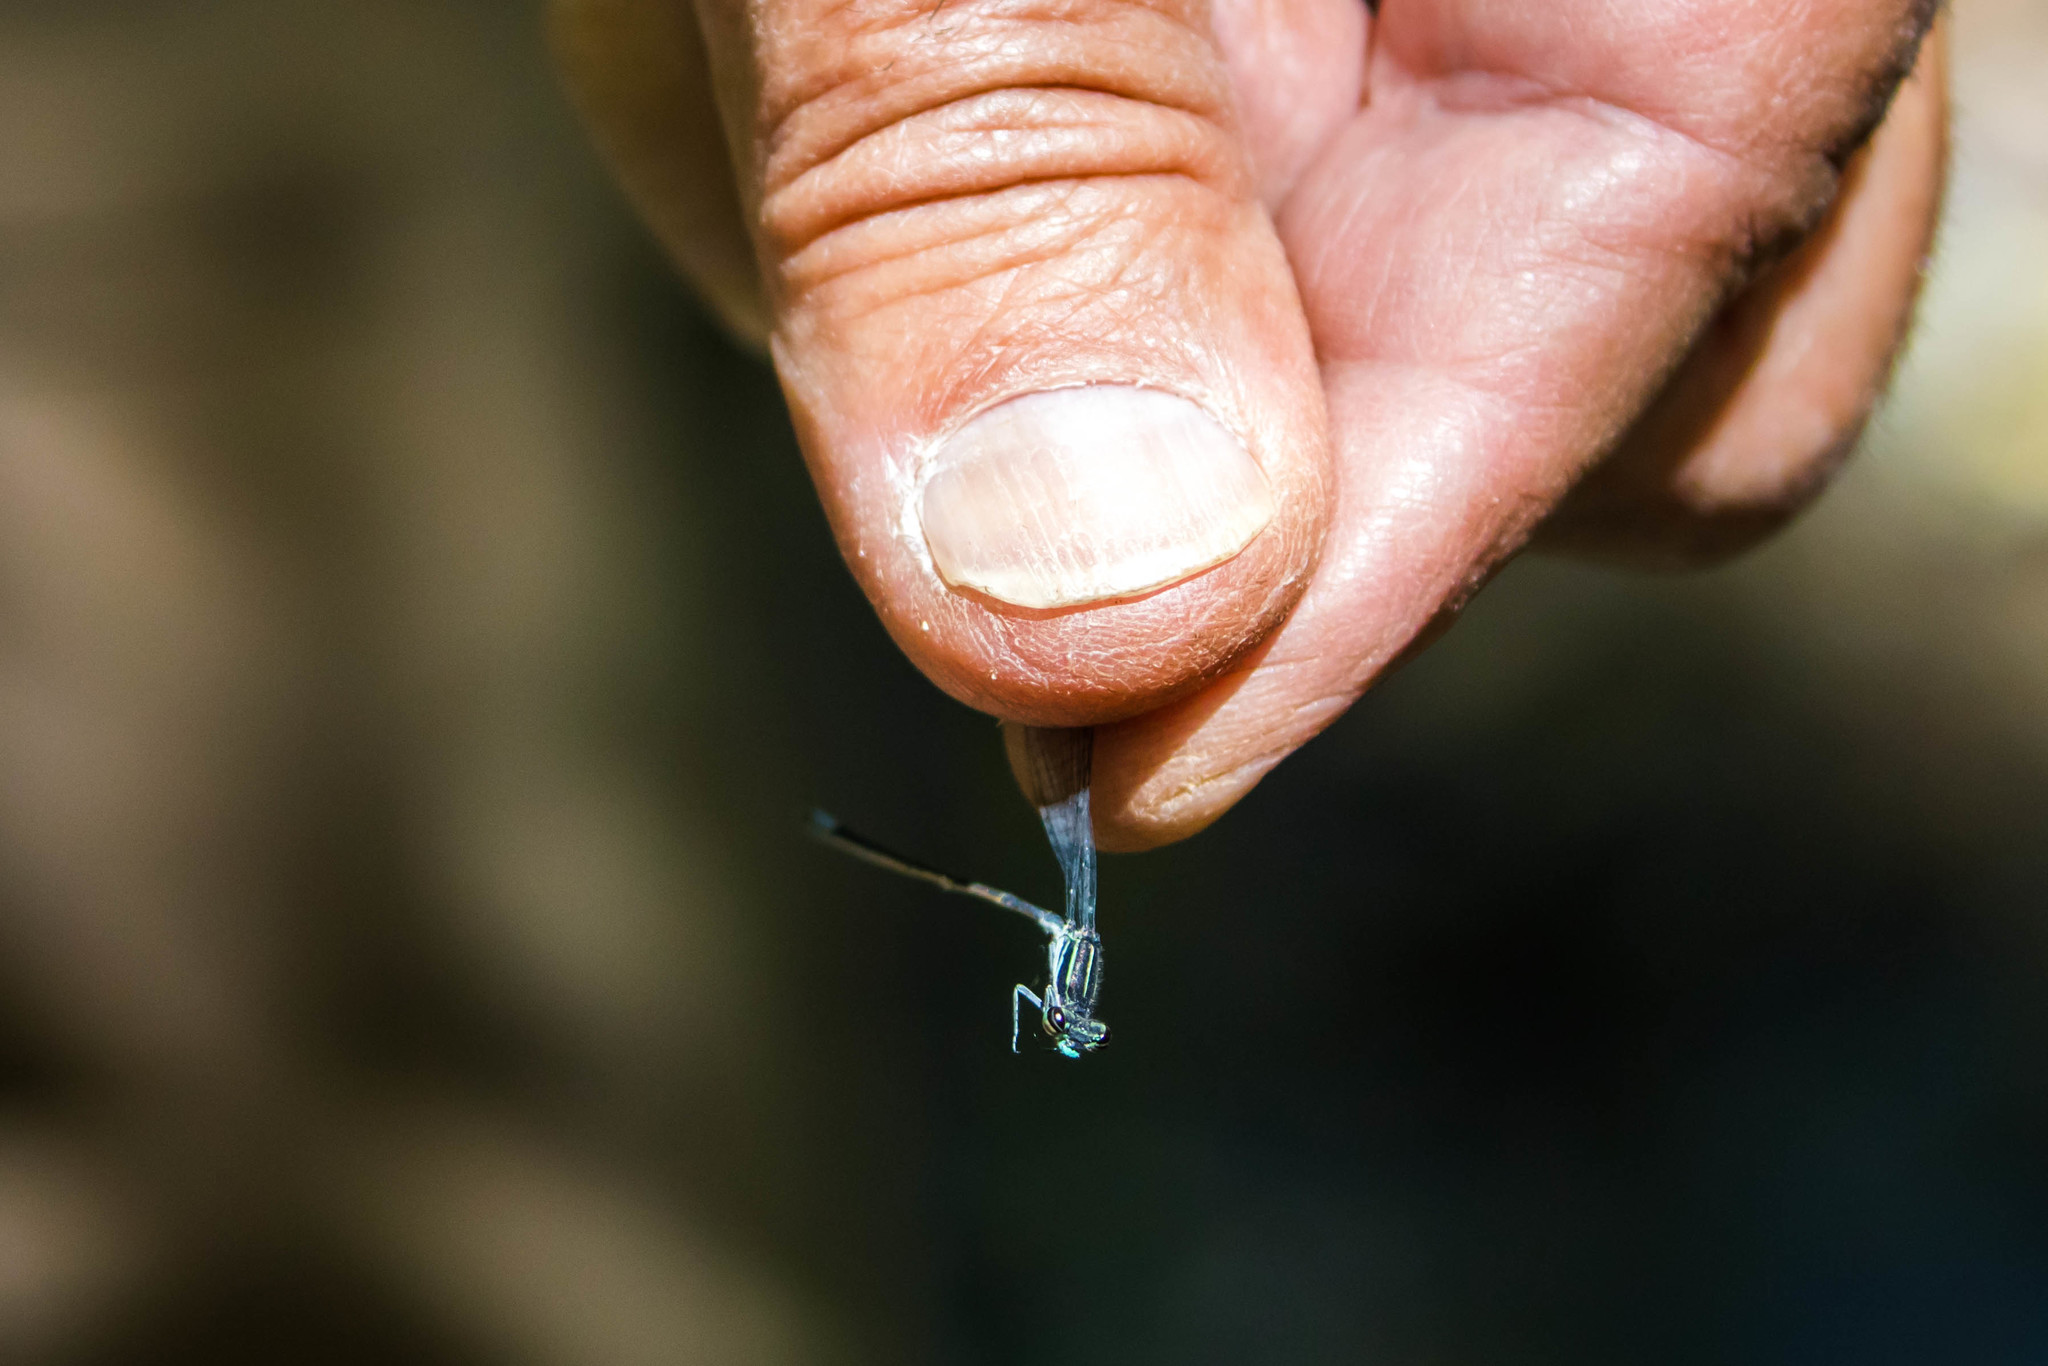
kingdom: Animalia
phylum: Arthropoda
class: Insecta
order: Odonata
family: Coenagrionidae
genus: Apanisagrion
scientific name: Apanisagrion lais
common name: Black-and-white damsel
